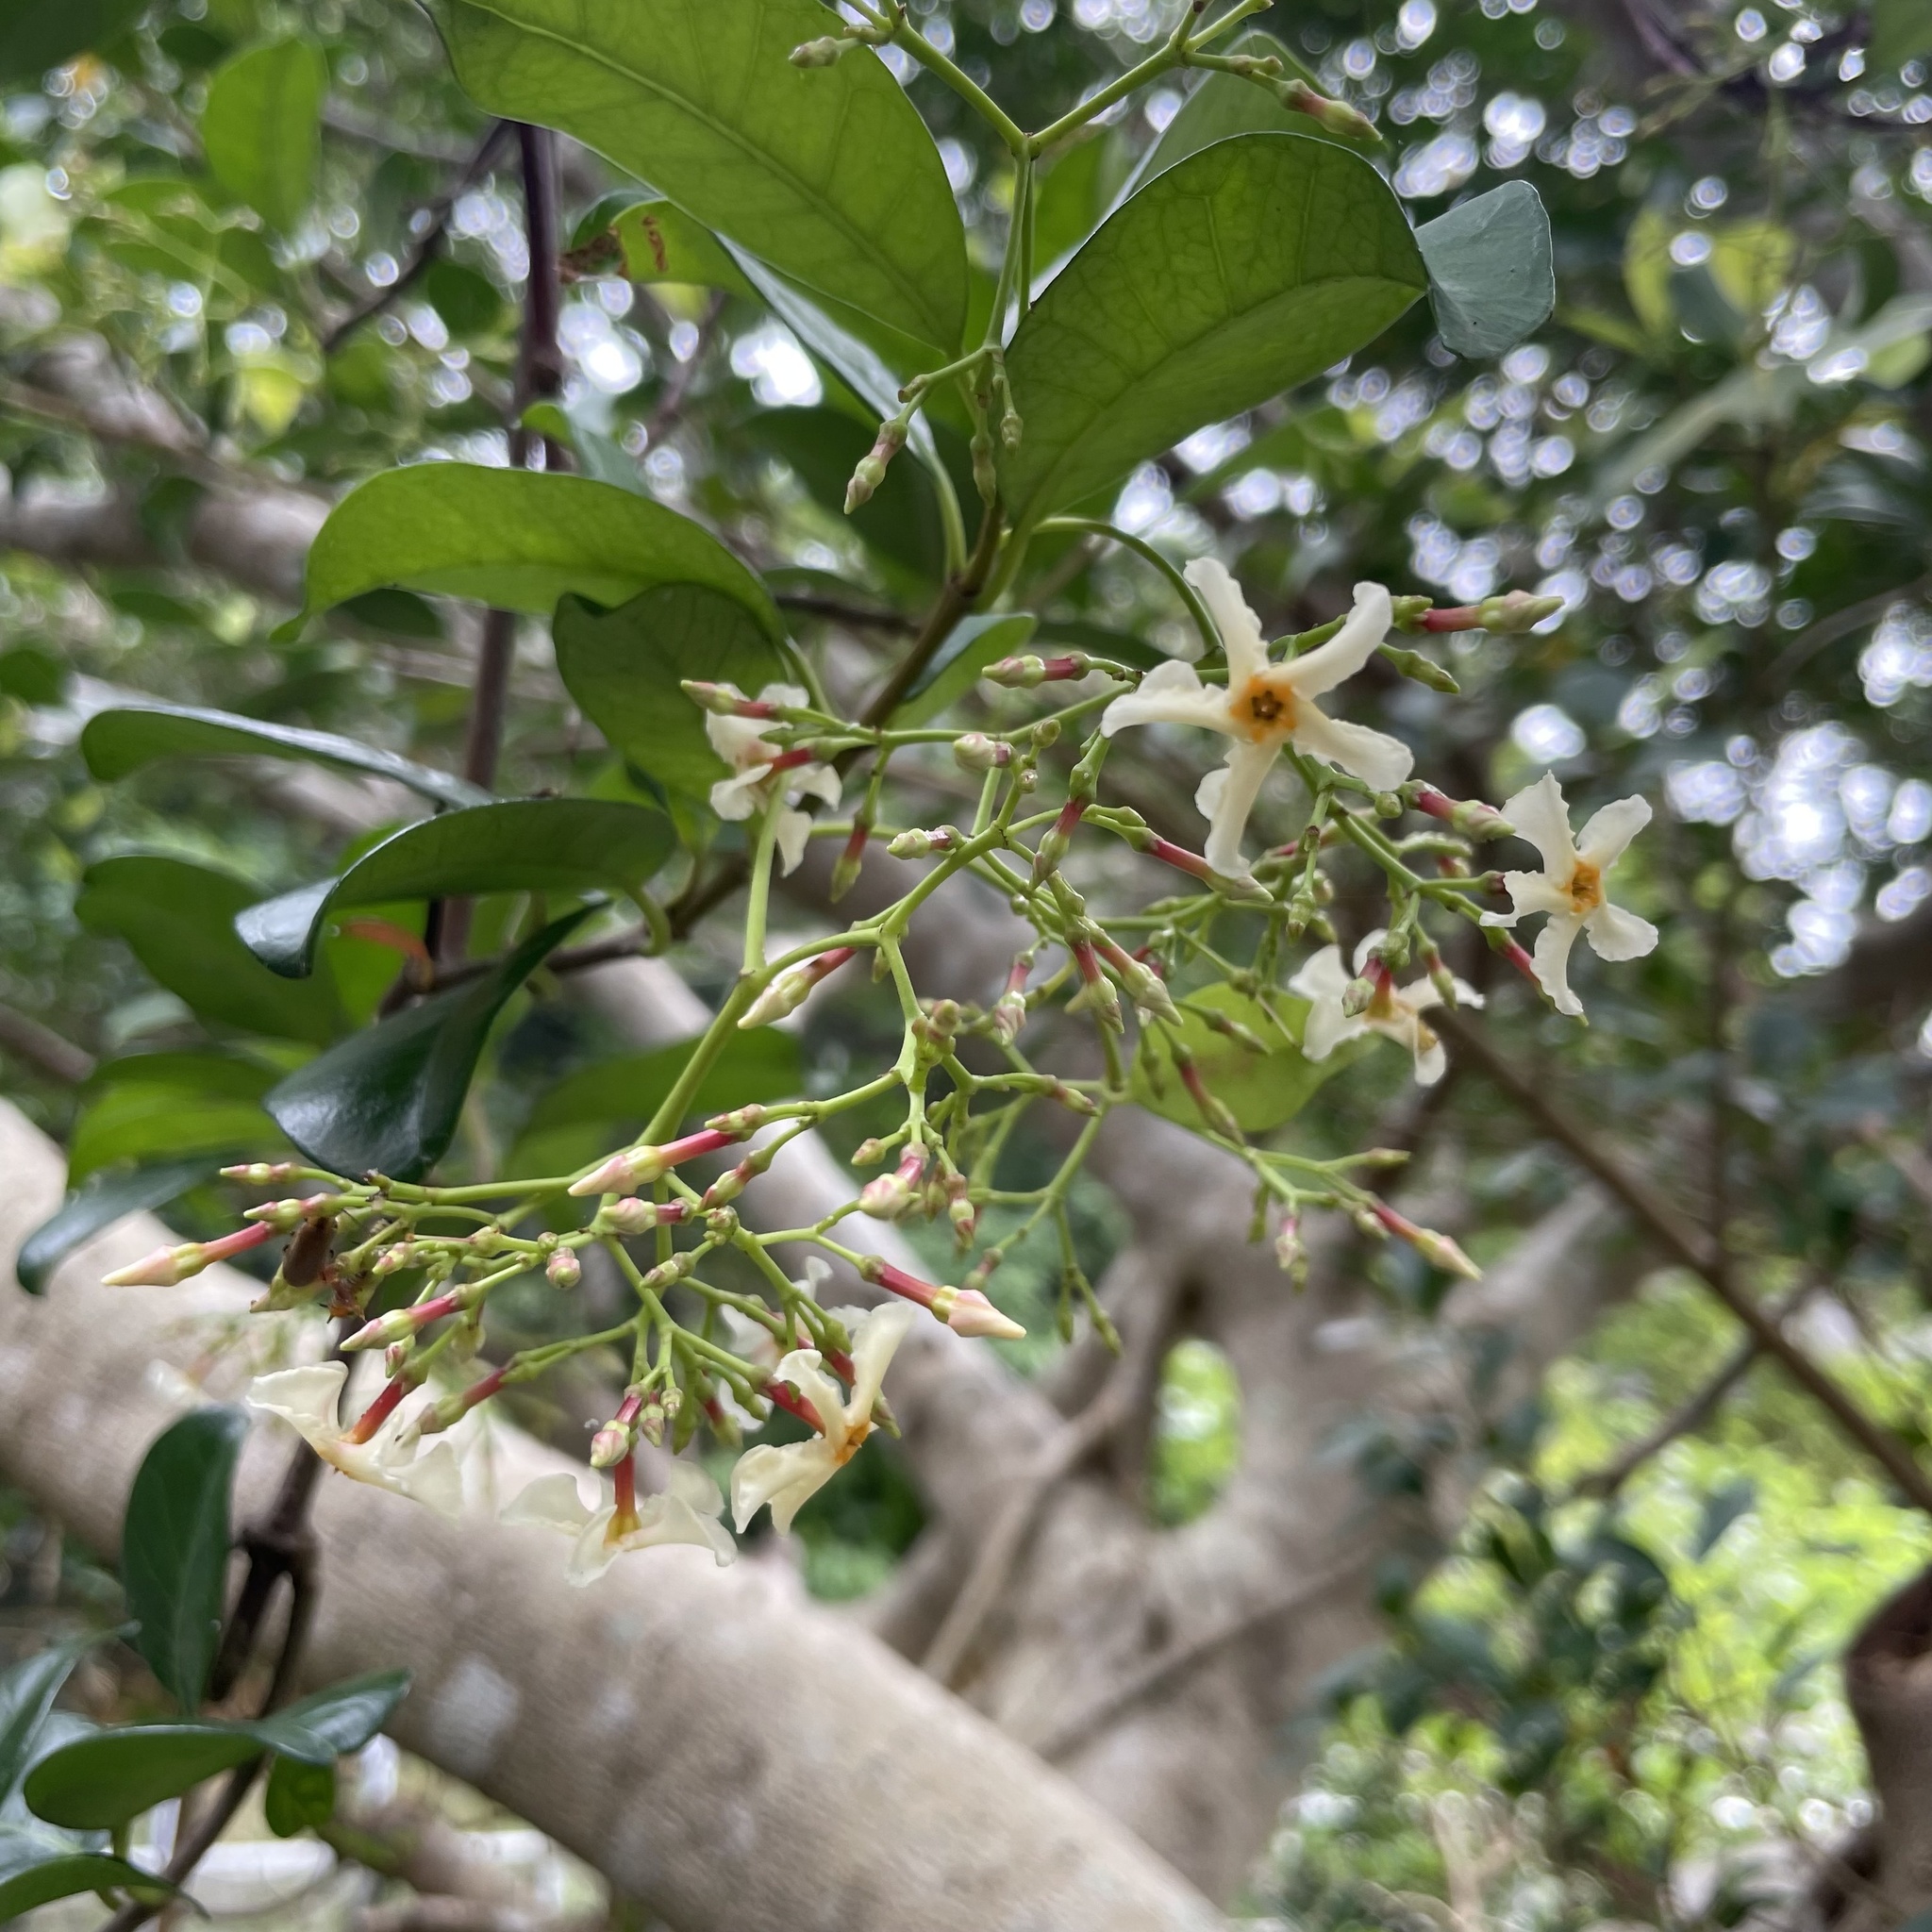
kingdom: Plantae
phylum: Tracheophyta
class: Magnoliopsida
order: Gentianales
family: Apocynaceae
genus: Trachelospermum
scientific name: Trachelospermum gracilipes
